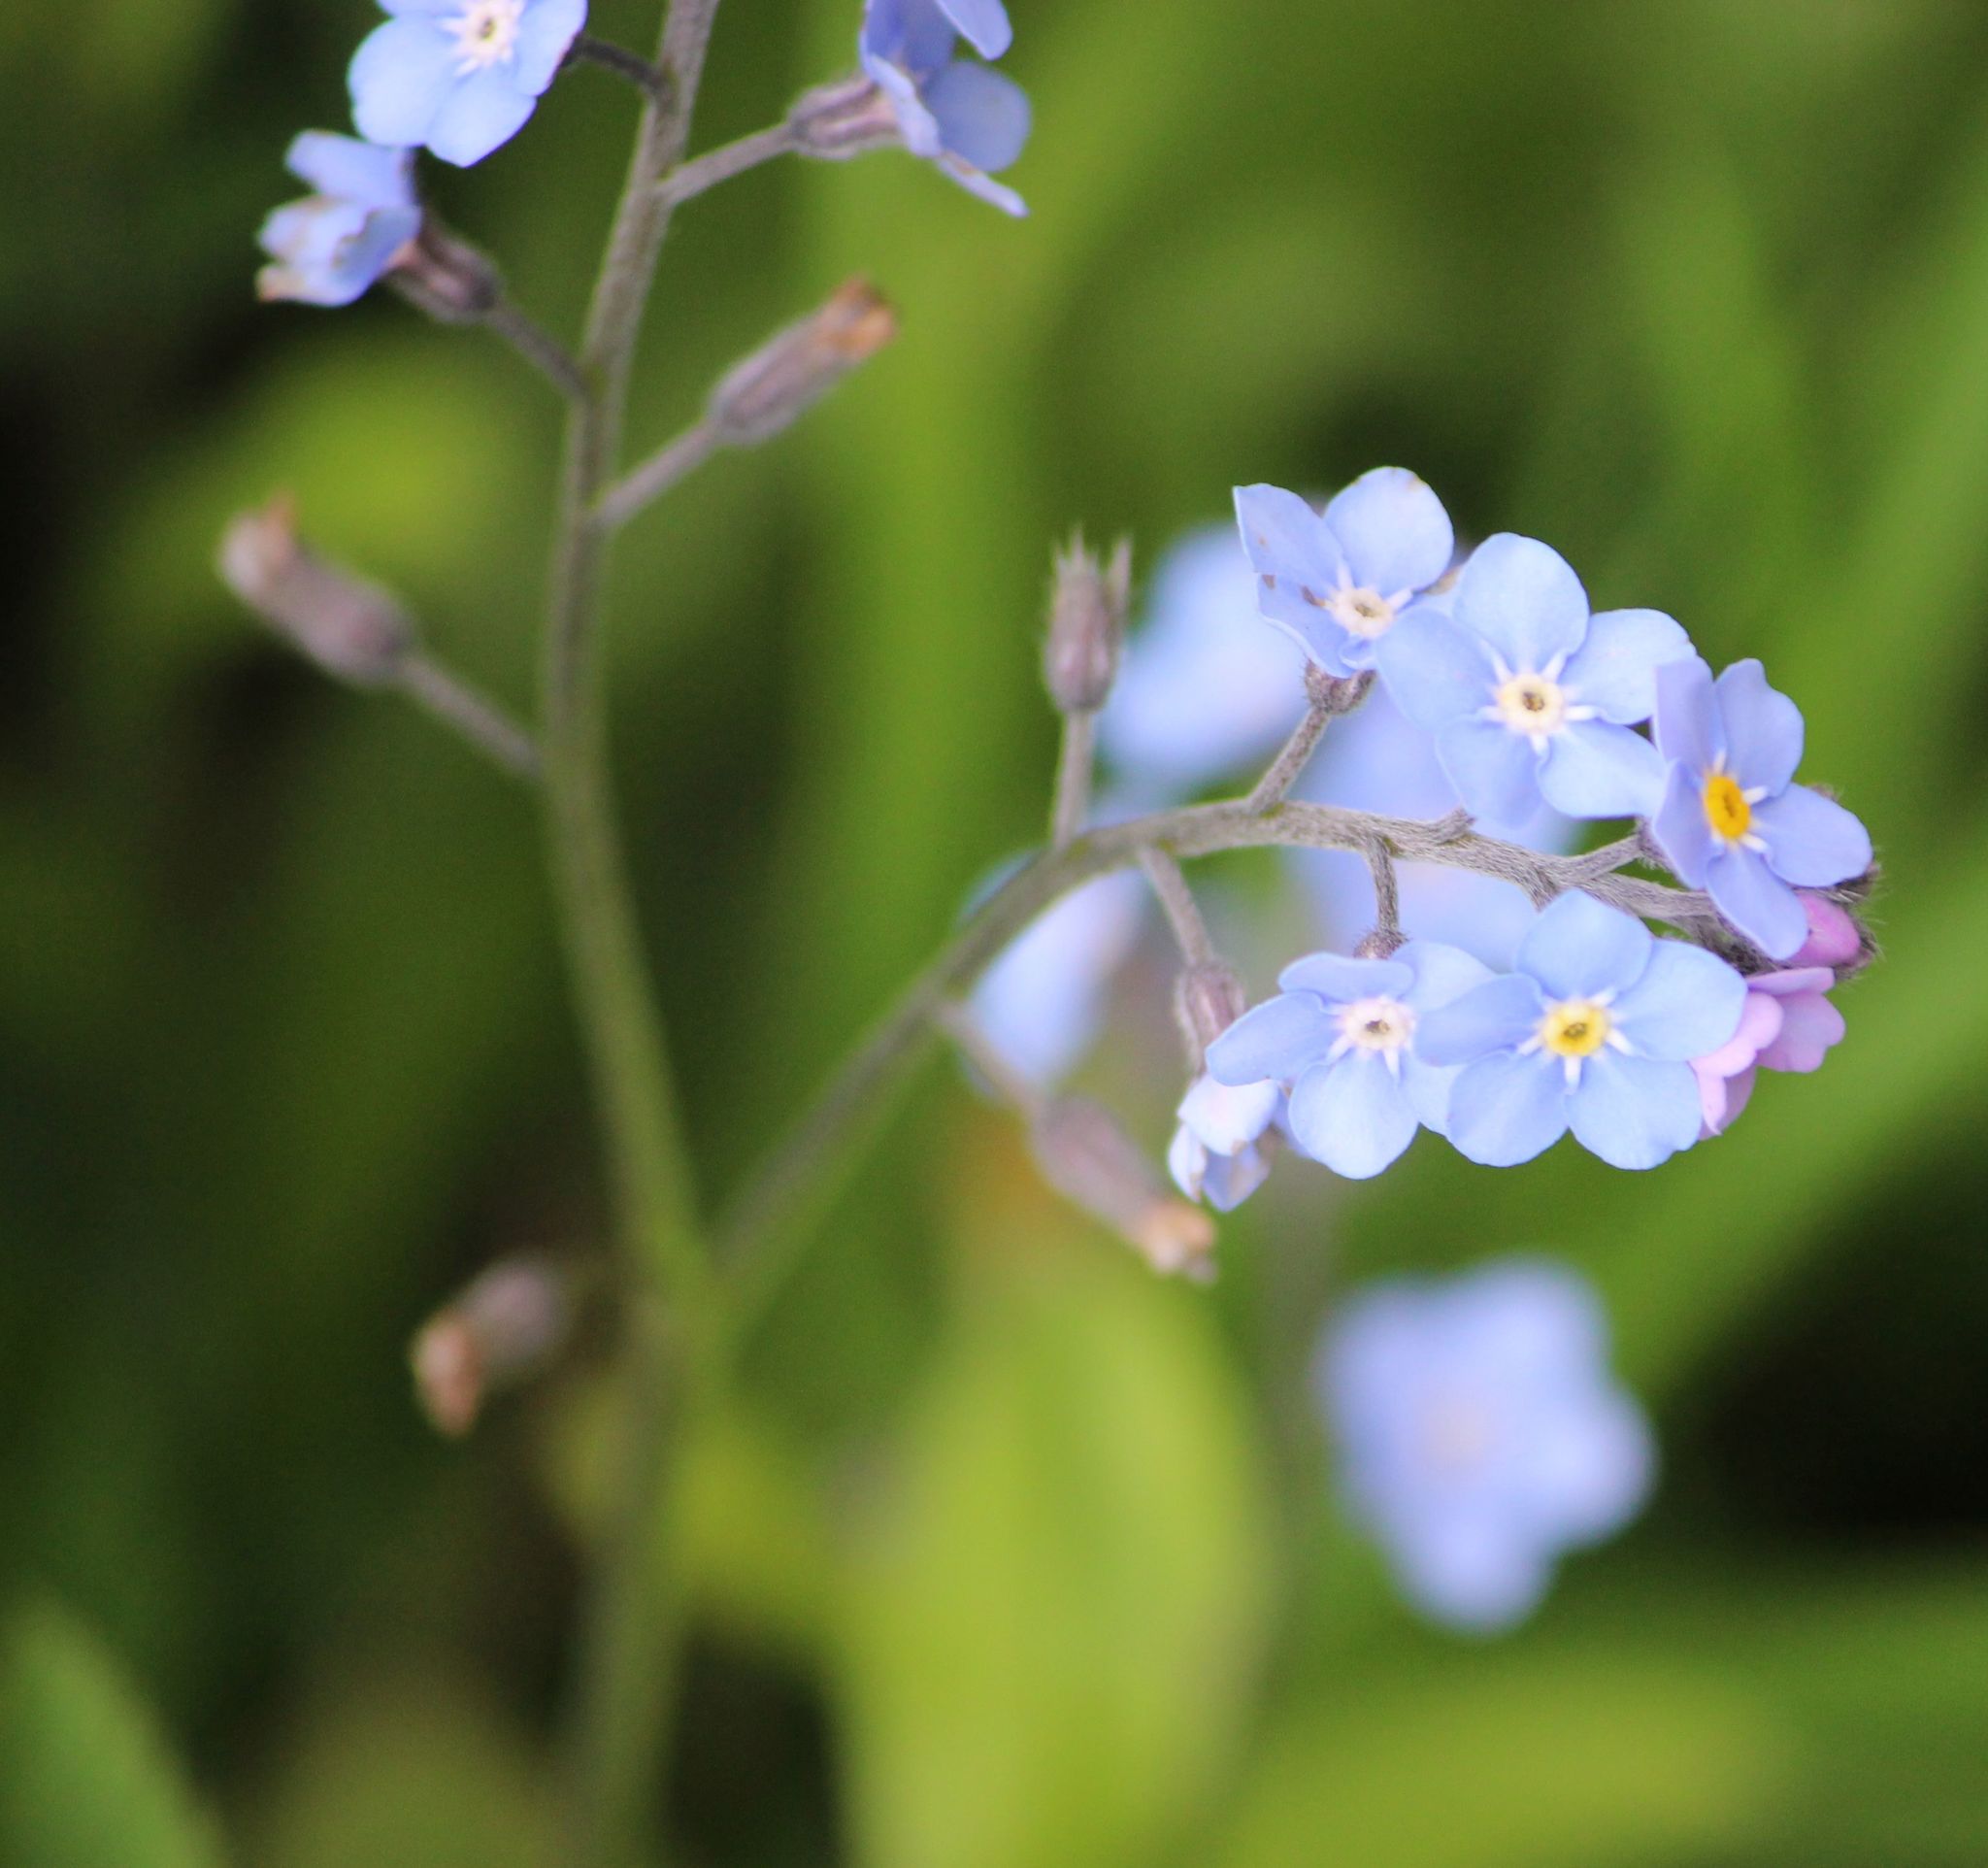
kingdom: Plantae
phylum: Tracheophyta
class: Magnoliopsida
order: Boraginales
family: Boraginaceae
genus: Myosotis
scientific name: Myosotis sylvatica
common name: Wood forget-me-not
